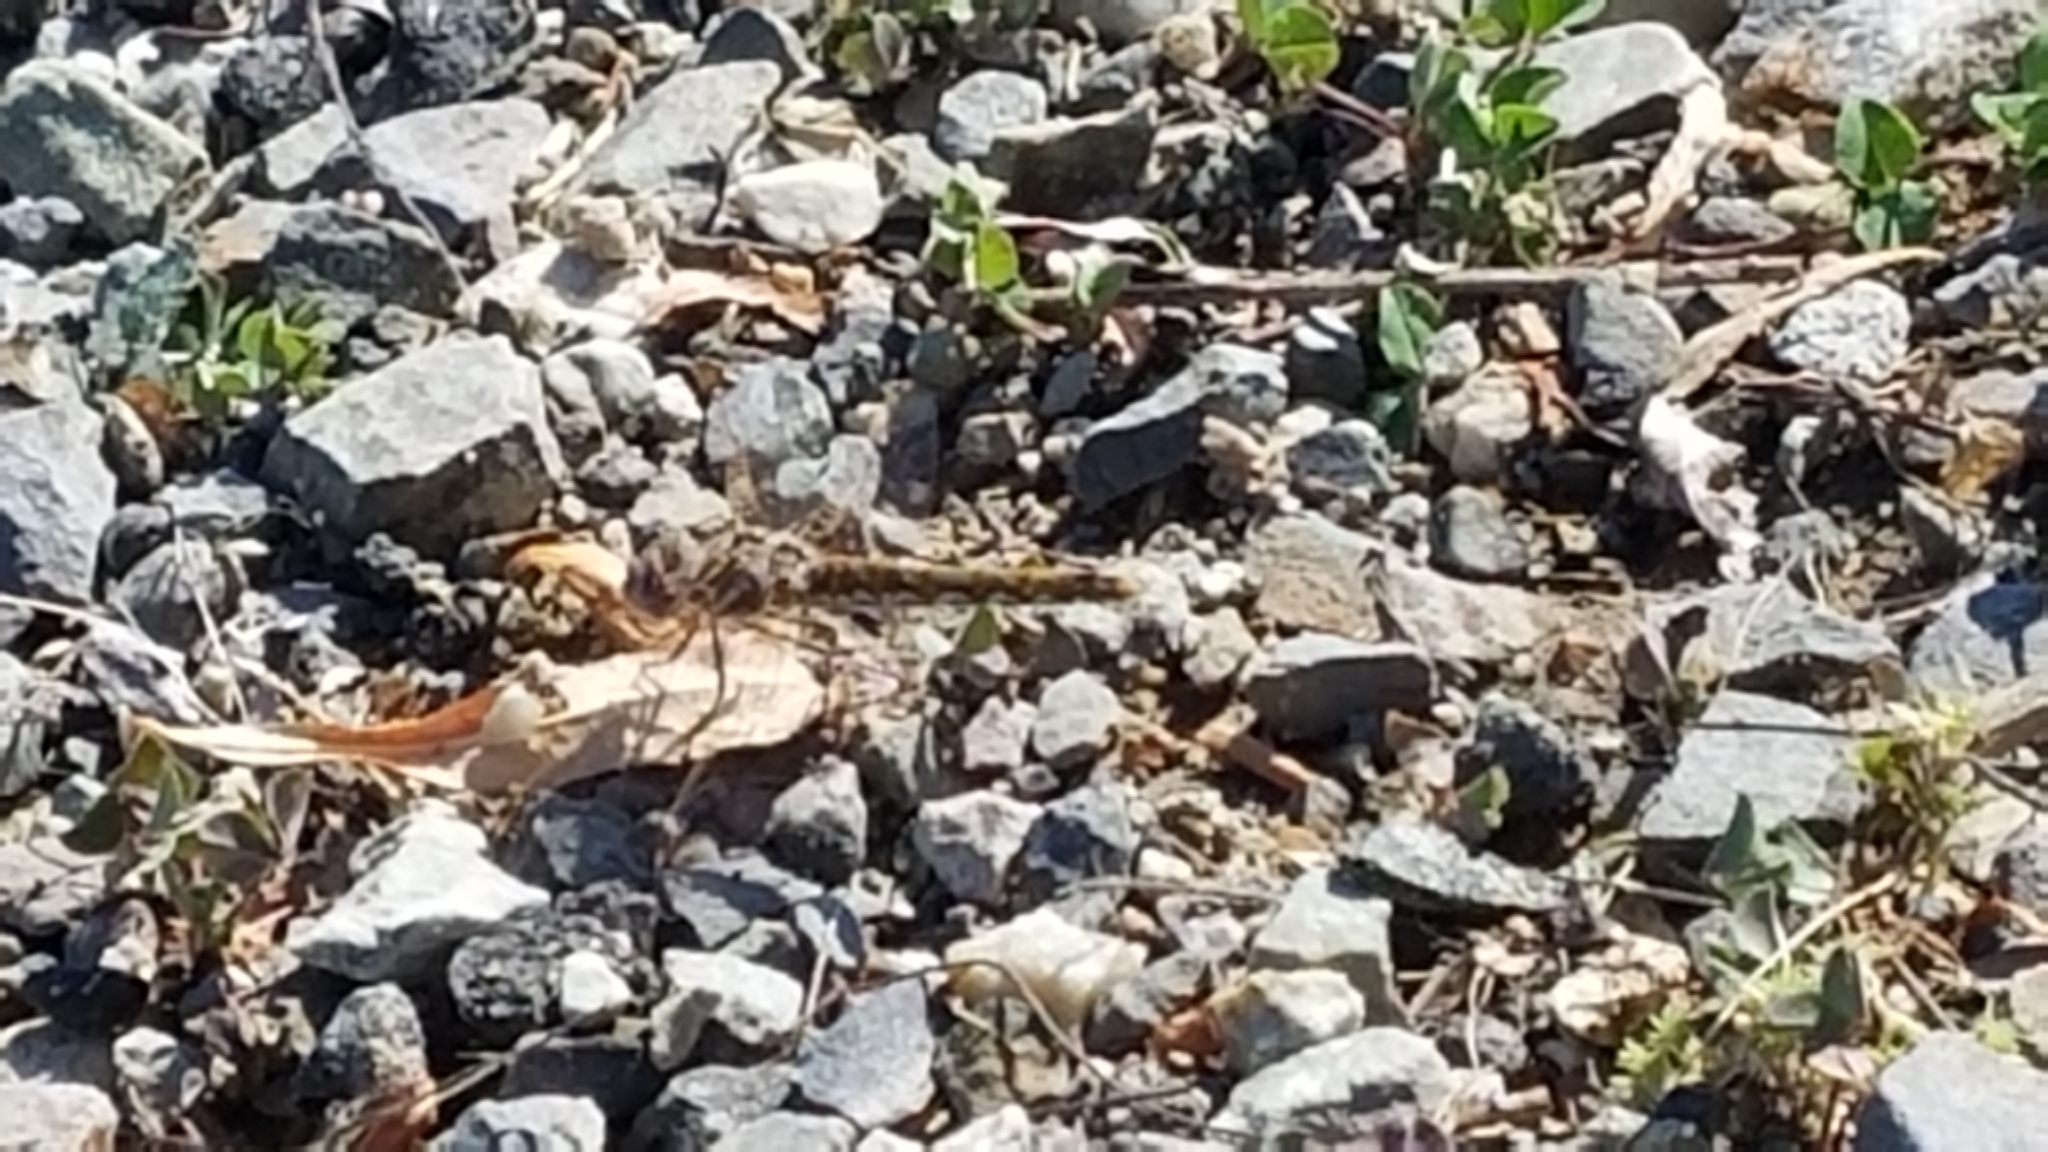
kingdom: Animalia
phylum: Arthropoda
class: Insecta
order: Odonata
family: Libellulidae
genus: Sympetrum
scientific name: Sympetrum corruptum
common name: Variegated meadowhawk
